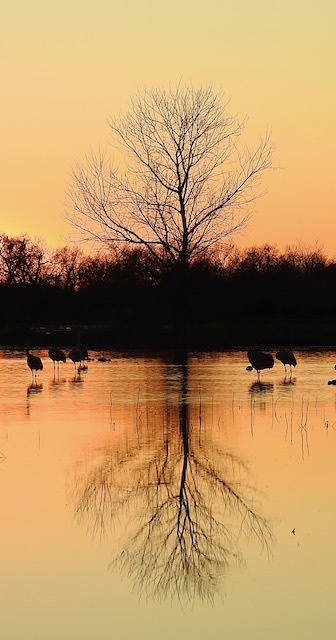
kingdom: Animalia
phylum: Chordata
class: Aves
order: Gruiformes
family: Gruidae
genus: Grus
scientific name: Grus canadensis
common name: Sandhill crane
